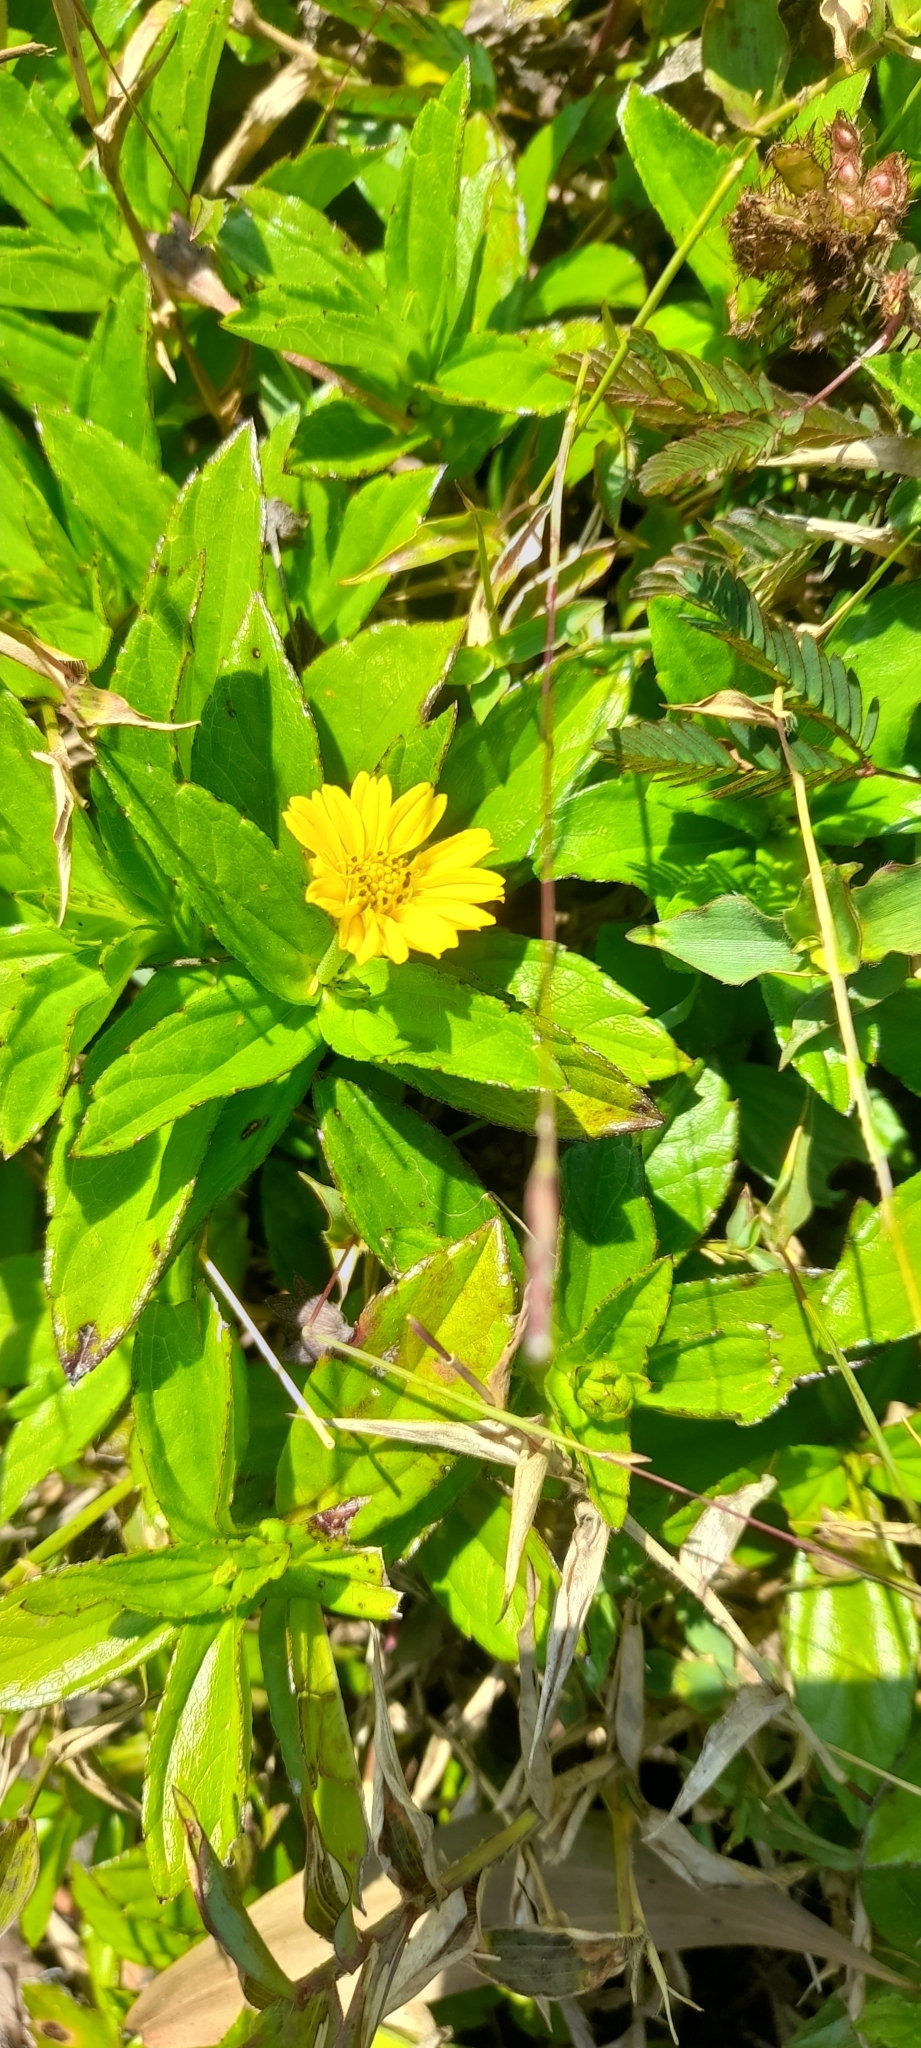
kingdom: Plantae
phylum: Tracheophyta
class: Magnoliopsida
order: Asterales
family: Asteraceae
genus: Sphagneticola
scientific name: Sphagneticola trilobata
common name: Bay biscayne creeping-oxeye
